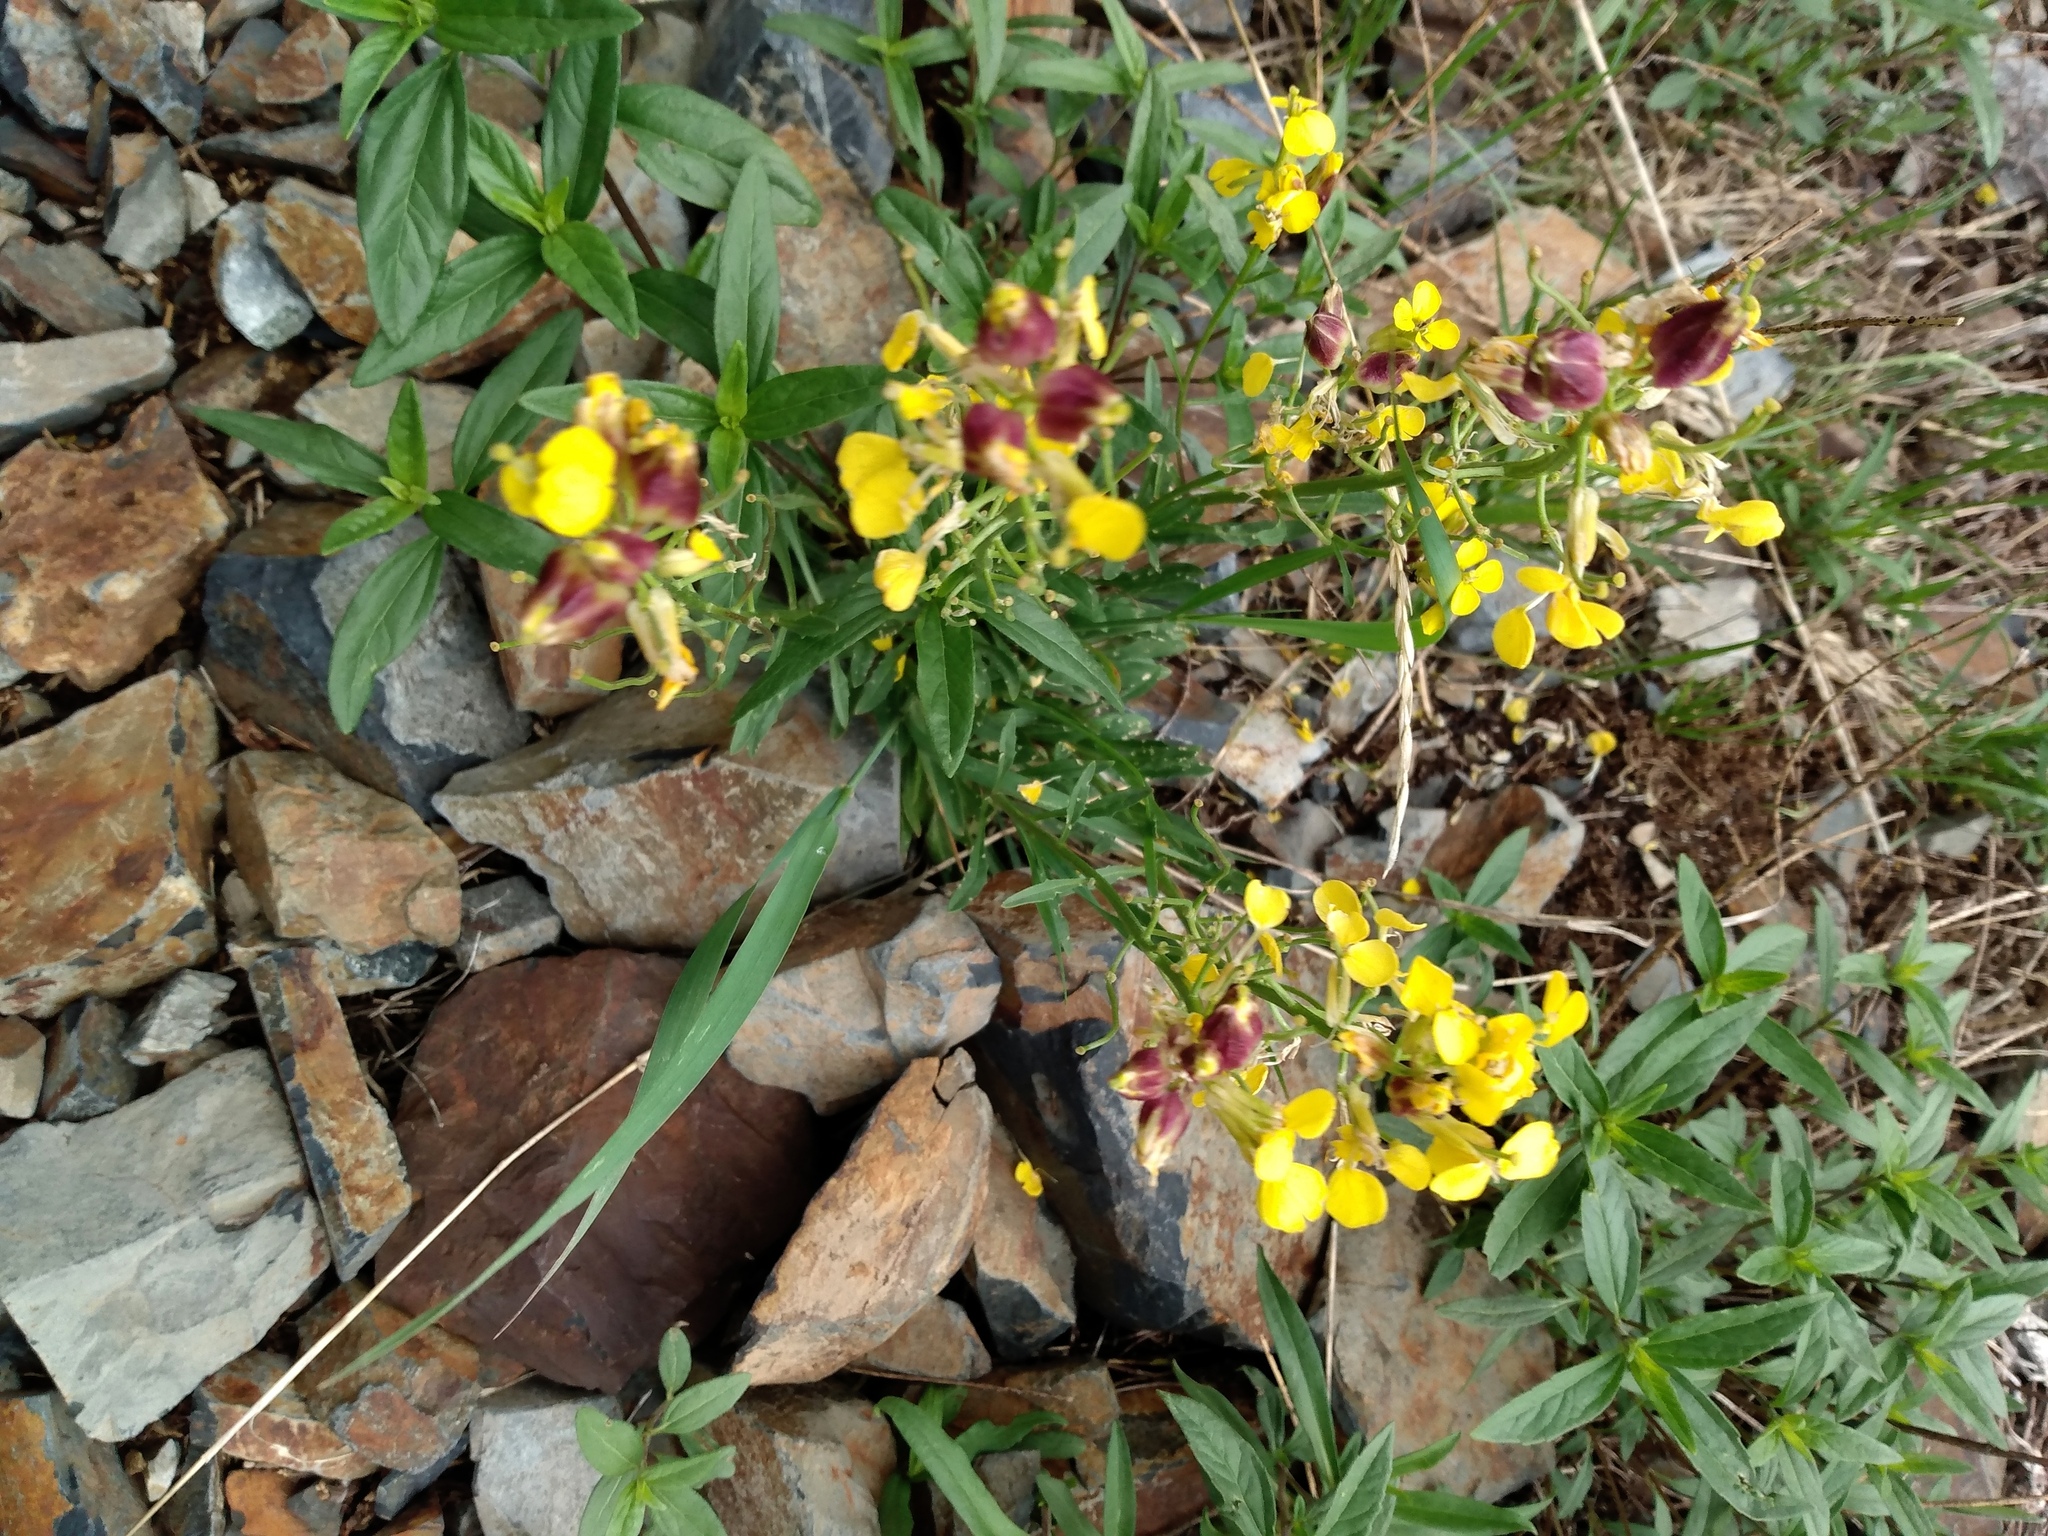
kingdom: Plantae
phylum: Tracheophyta
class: Magnoliopsida
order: Brassicales
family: Brassicaceae
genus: Erysimum
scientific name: Erysimum capitatum
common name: Western wallflower
